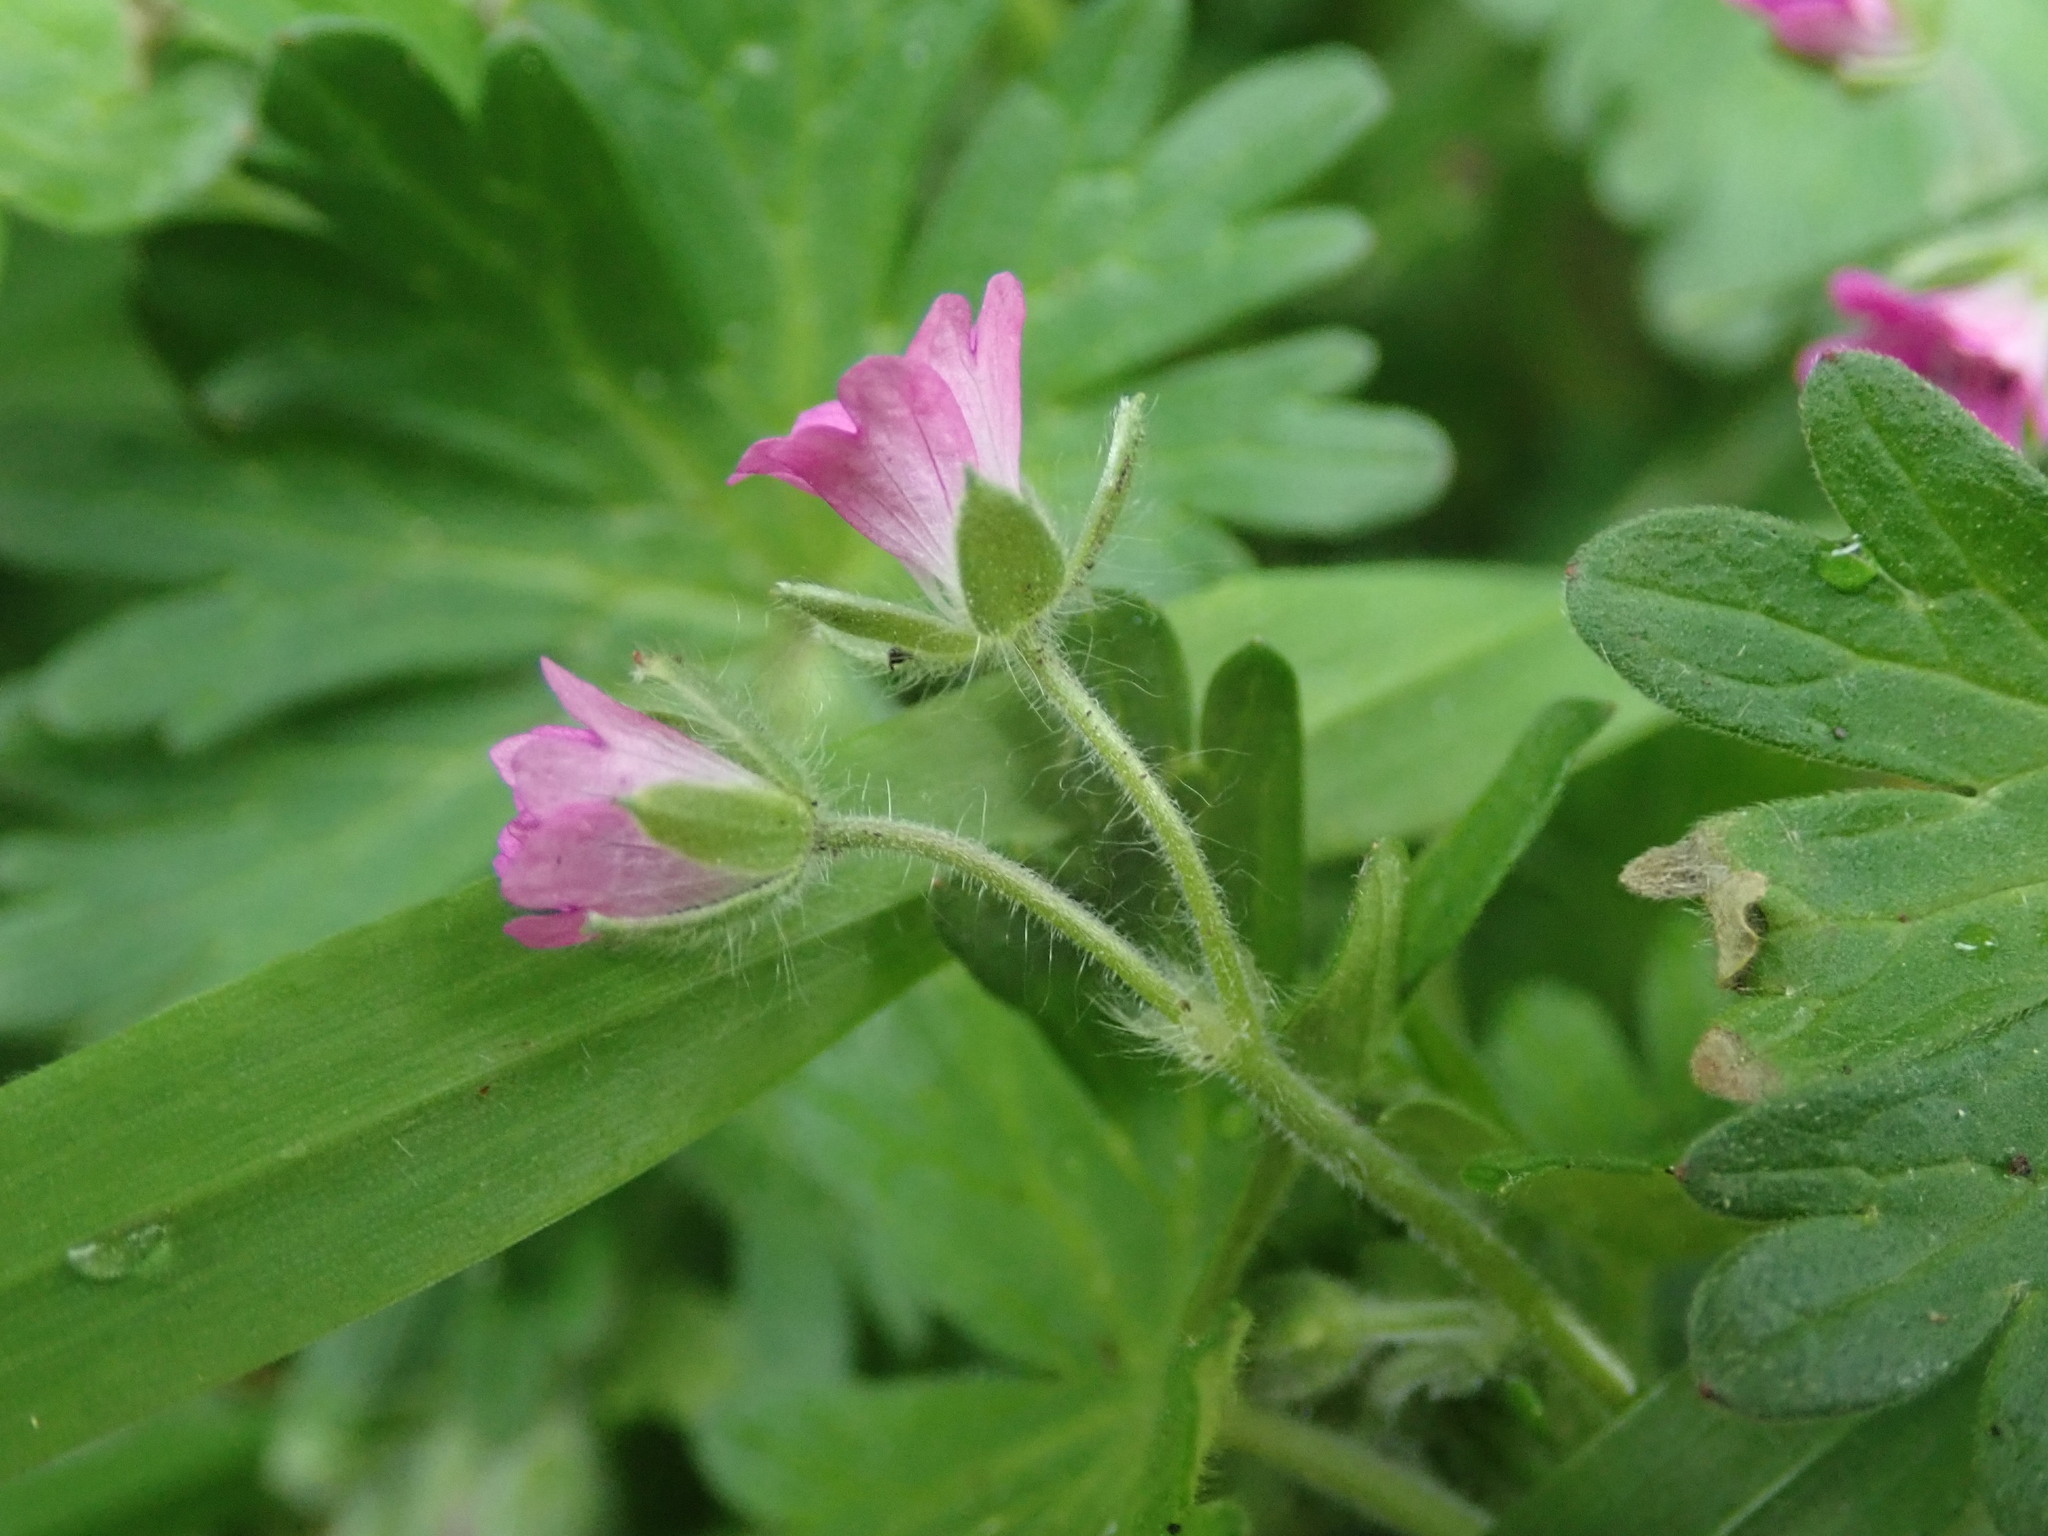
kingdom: Plantae
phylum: Tracheophyta
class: Magnoliopsida
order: Geraniales
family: Geraniaceae
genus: Geranium
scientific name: Geranium molle
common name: Dove's-foot crane's-bill
